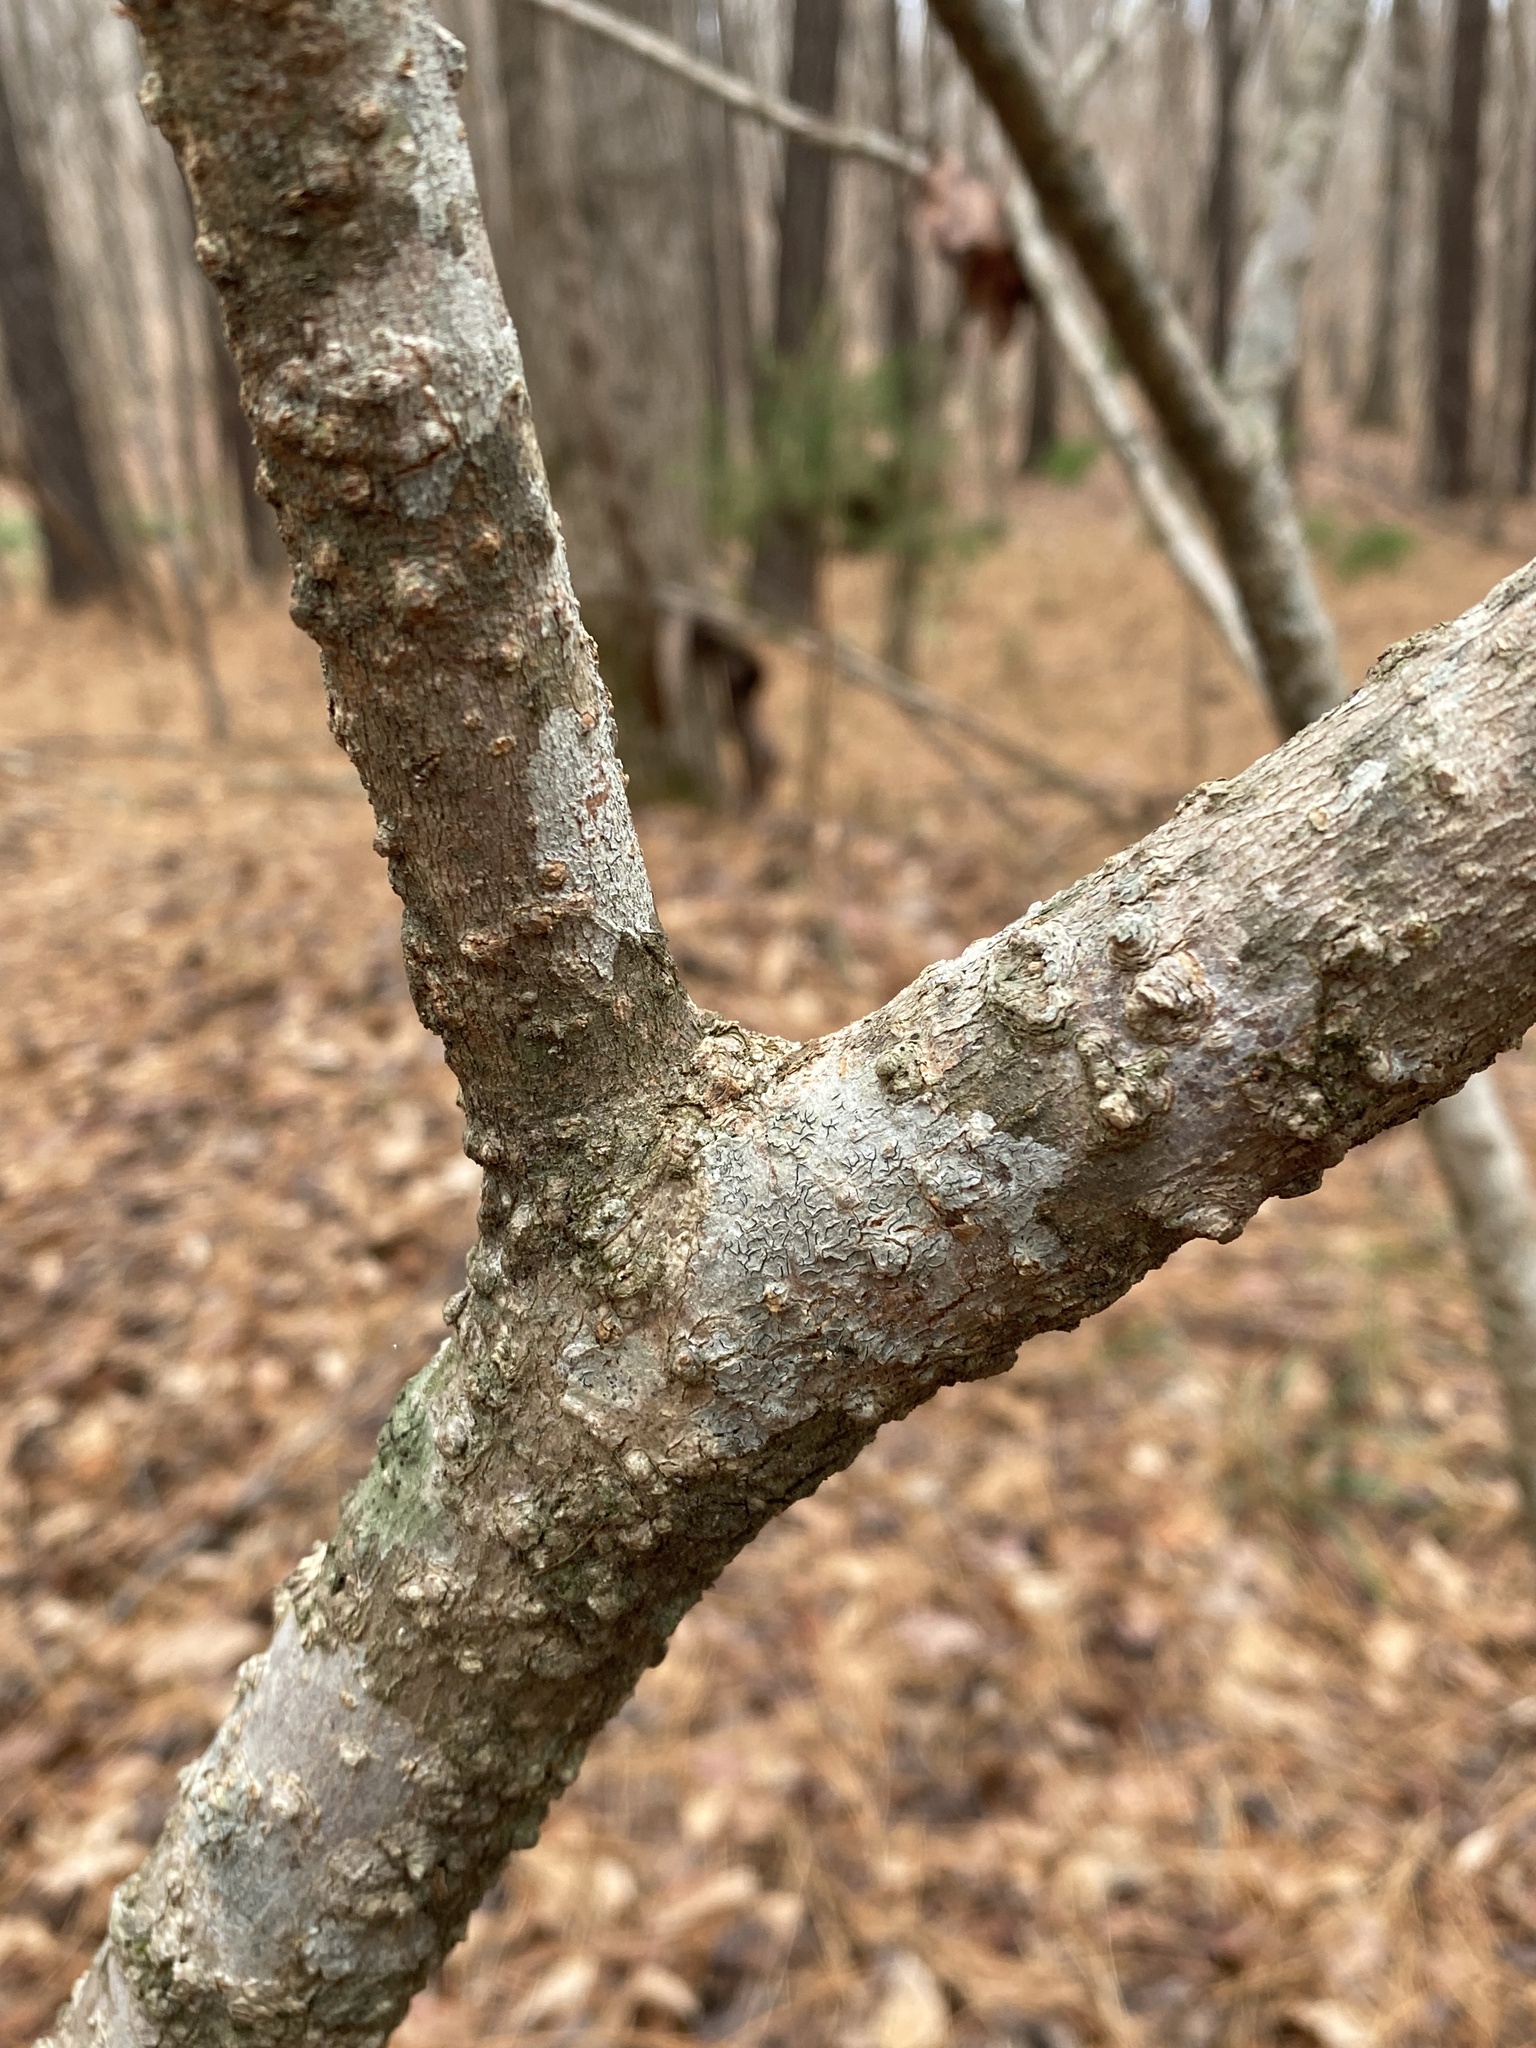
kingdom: Plantae
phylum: Tracheophyta
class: Magnoliopsida
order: Sapindales
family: Sapindaceae
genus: Aesculus
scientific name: Aesculus sylvatica
